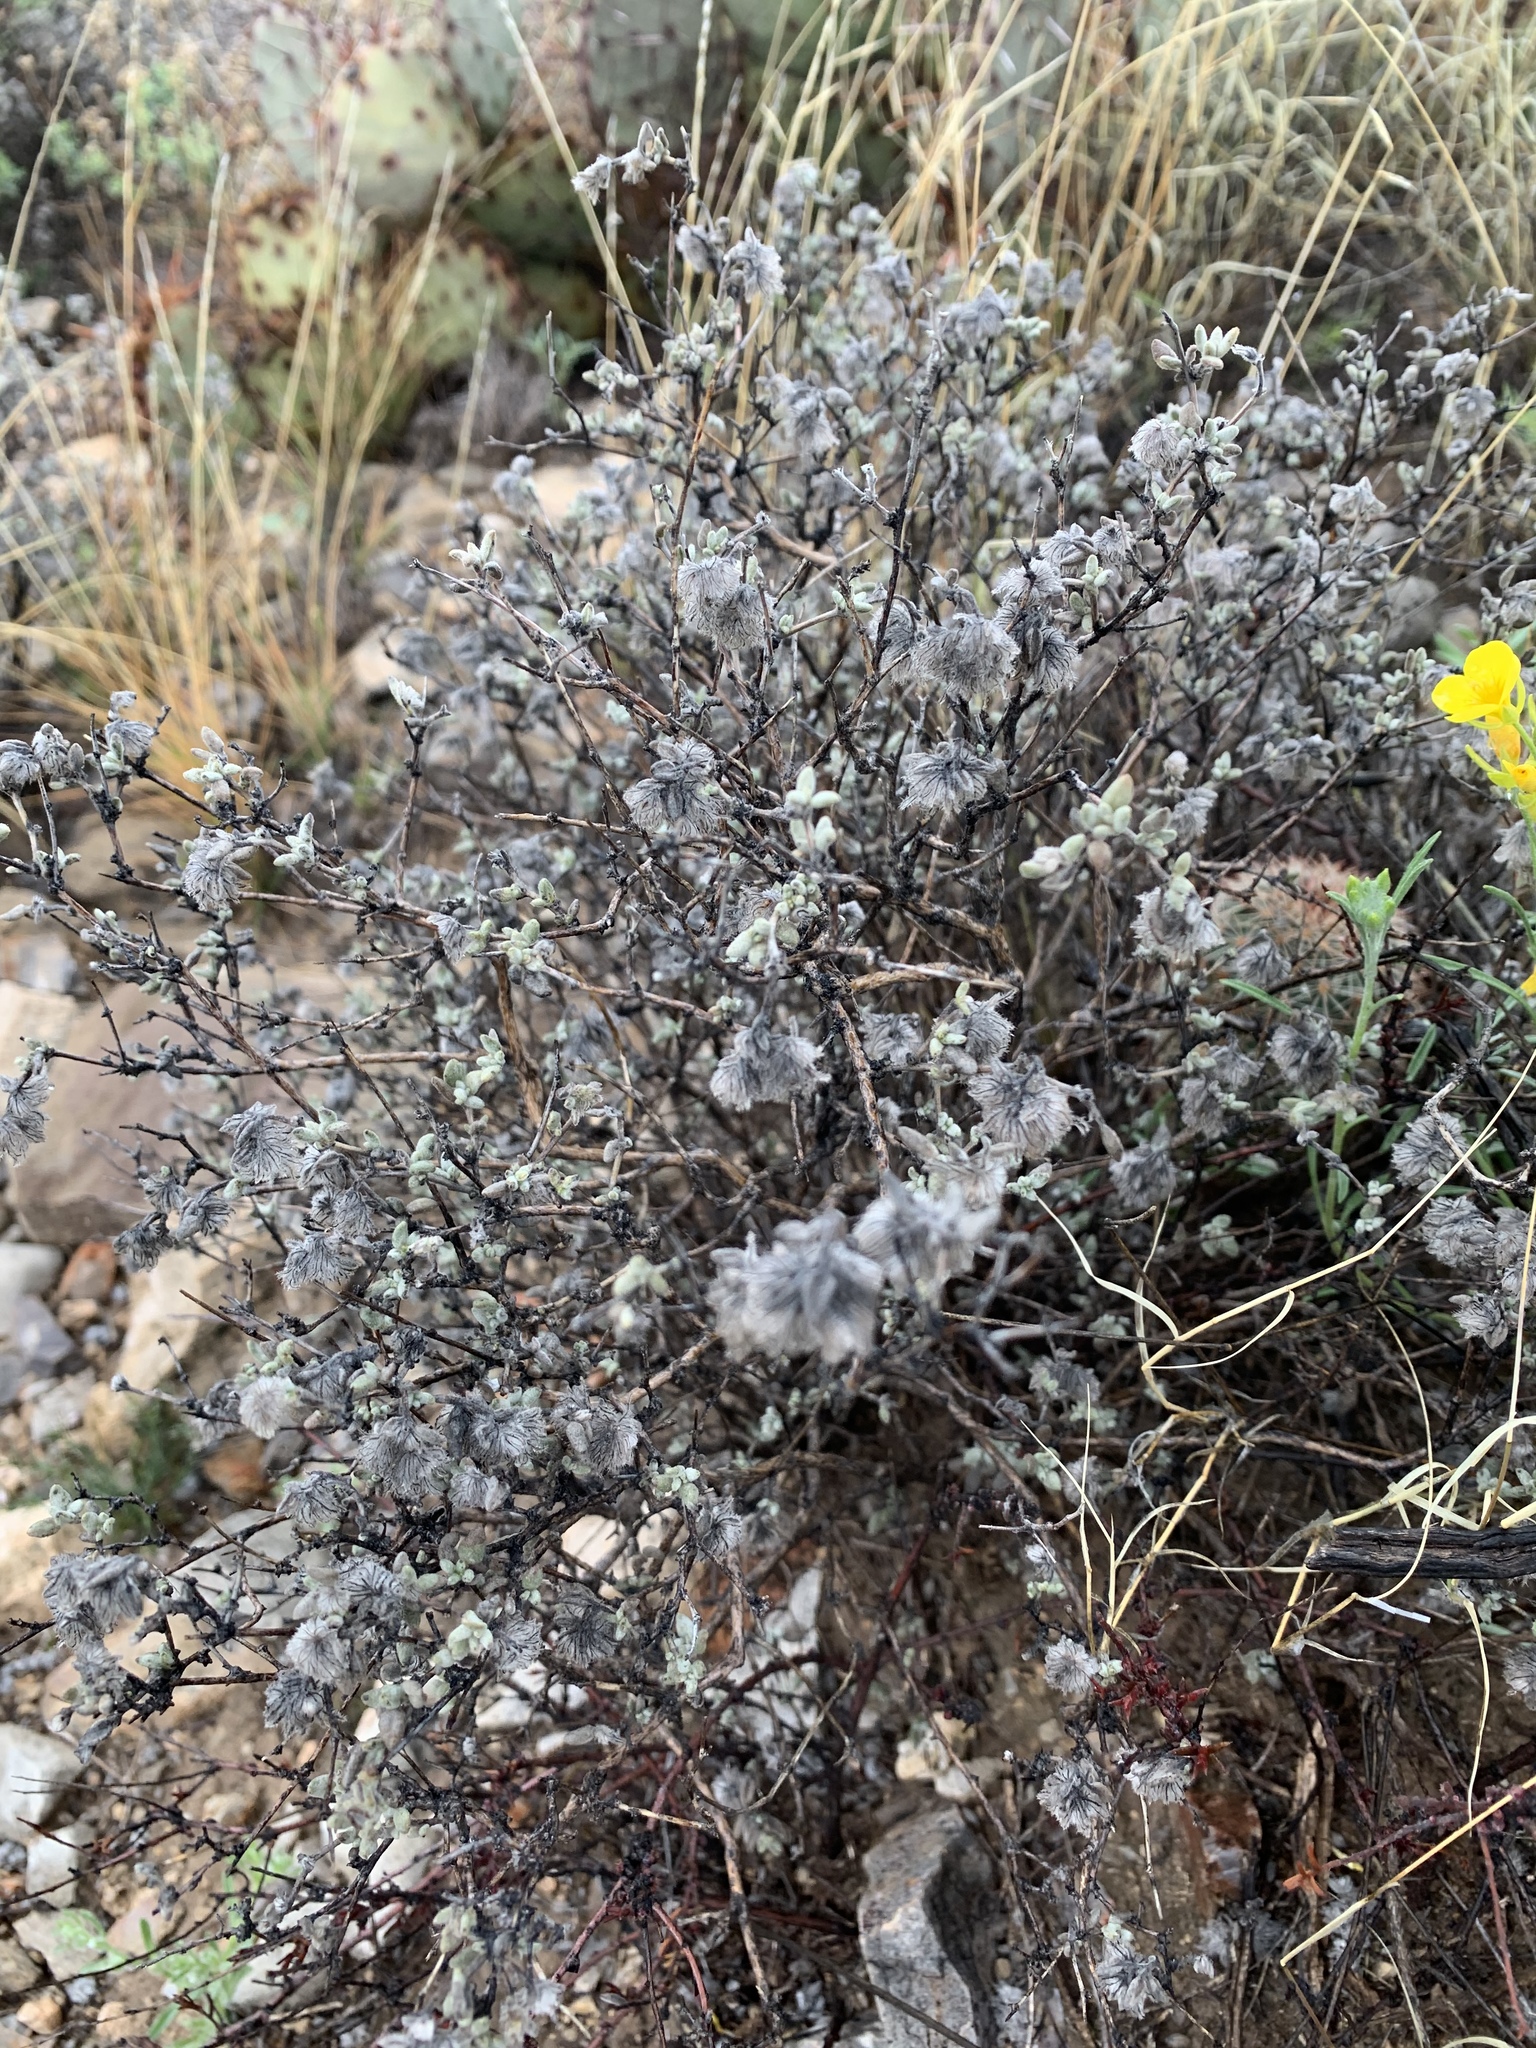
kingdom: Plantae
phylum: Tracheophyta
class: Magnoliopsida
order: Boraginales
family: Ehretiaceae
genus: Tiquilia
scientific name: Tiquilia greggii
